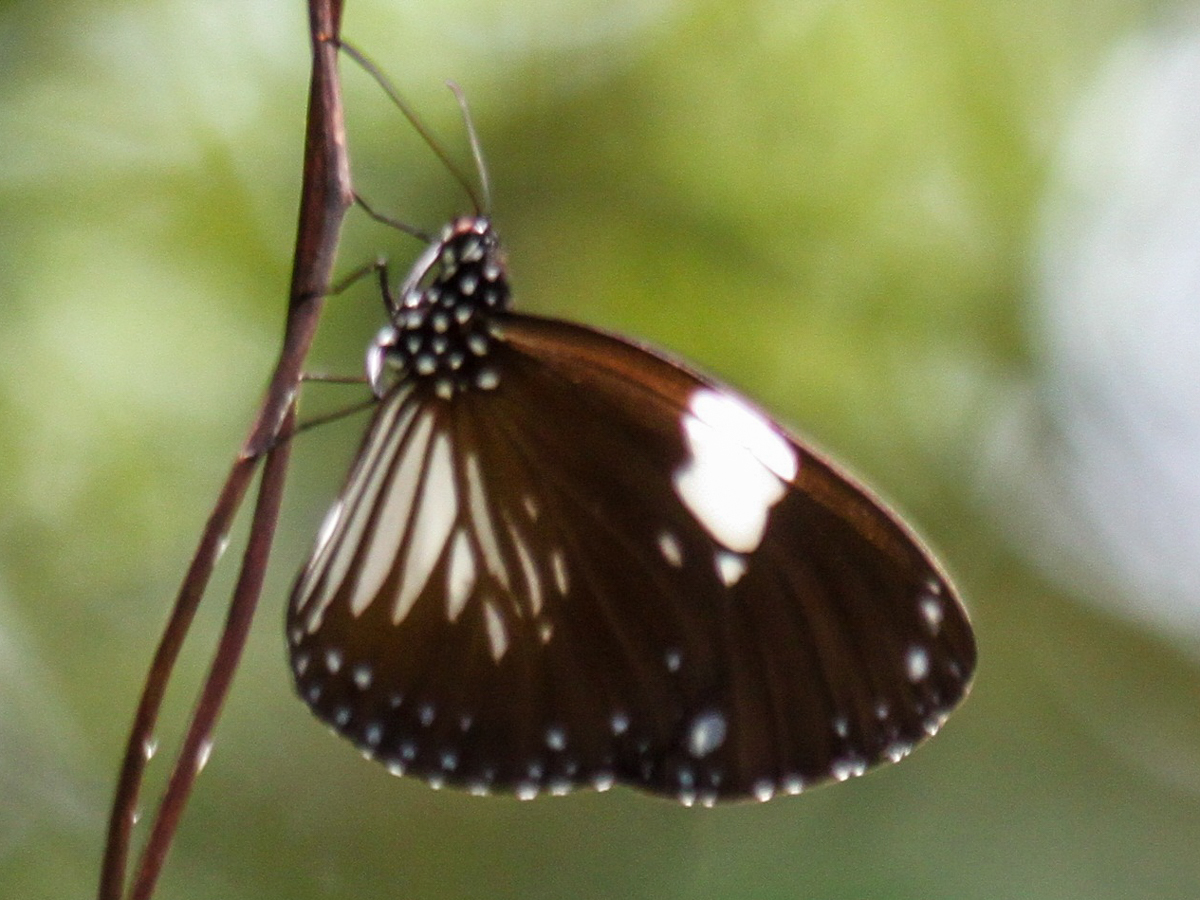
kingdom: Animalia
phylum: Arthropoda
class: Insecta
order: Lepidoptera
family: Nymphalidae
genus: Euploea
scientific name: Euploea radamanthus
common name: Magpie crow butterfly
